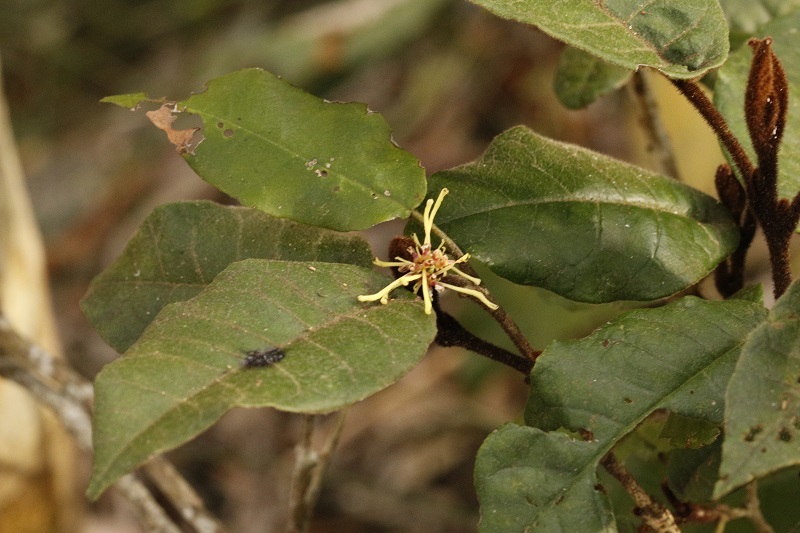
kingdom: Plantae
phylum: Tracheophyta
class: Magnoliopsida
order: Saxifragales
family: Hamamelidaceae
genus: Trichocladus
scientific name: Trichocladus crinitus
